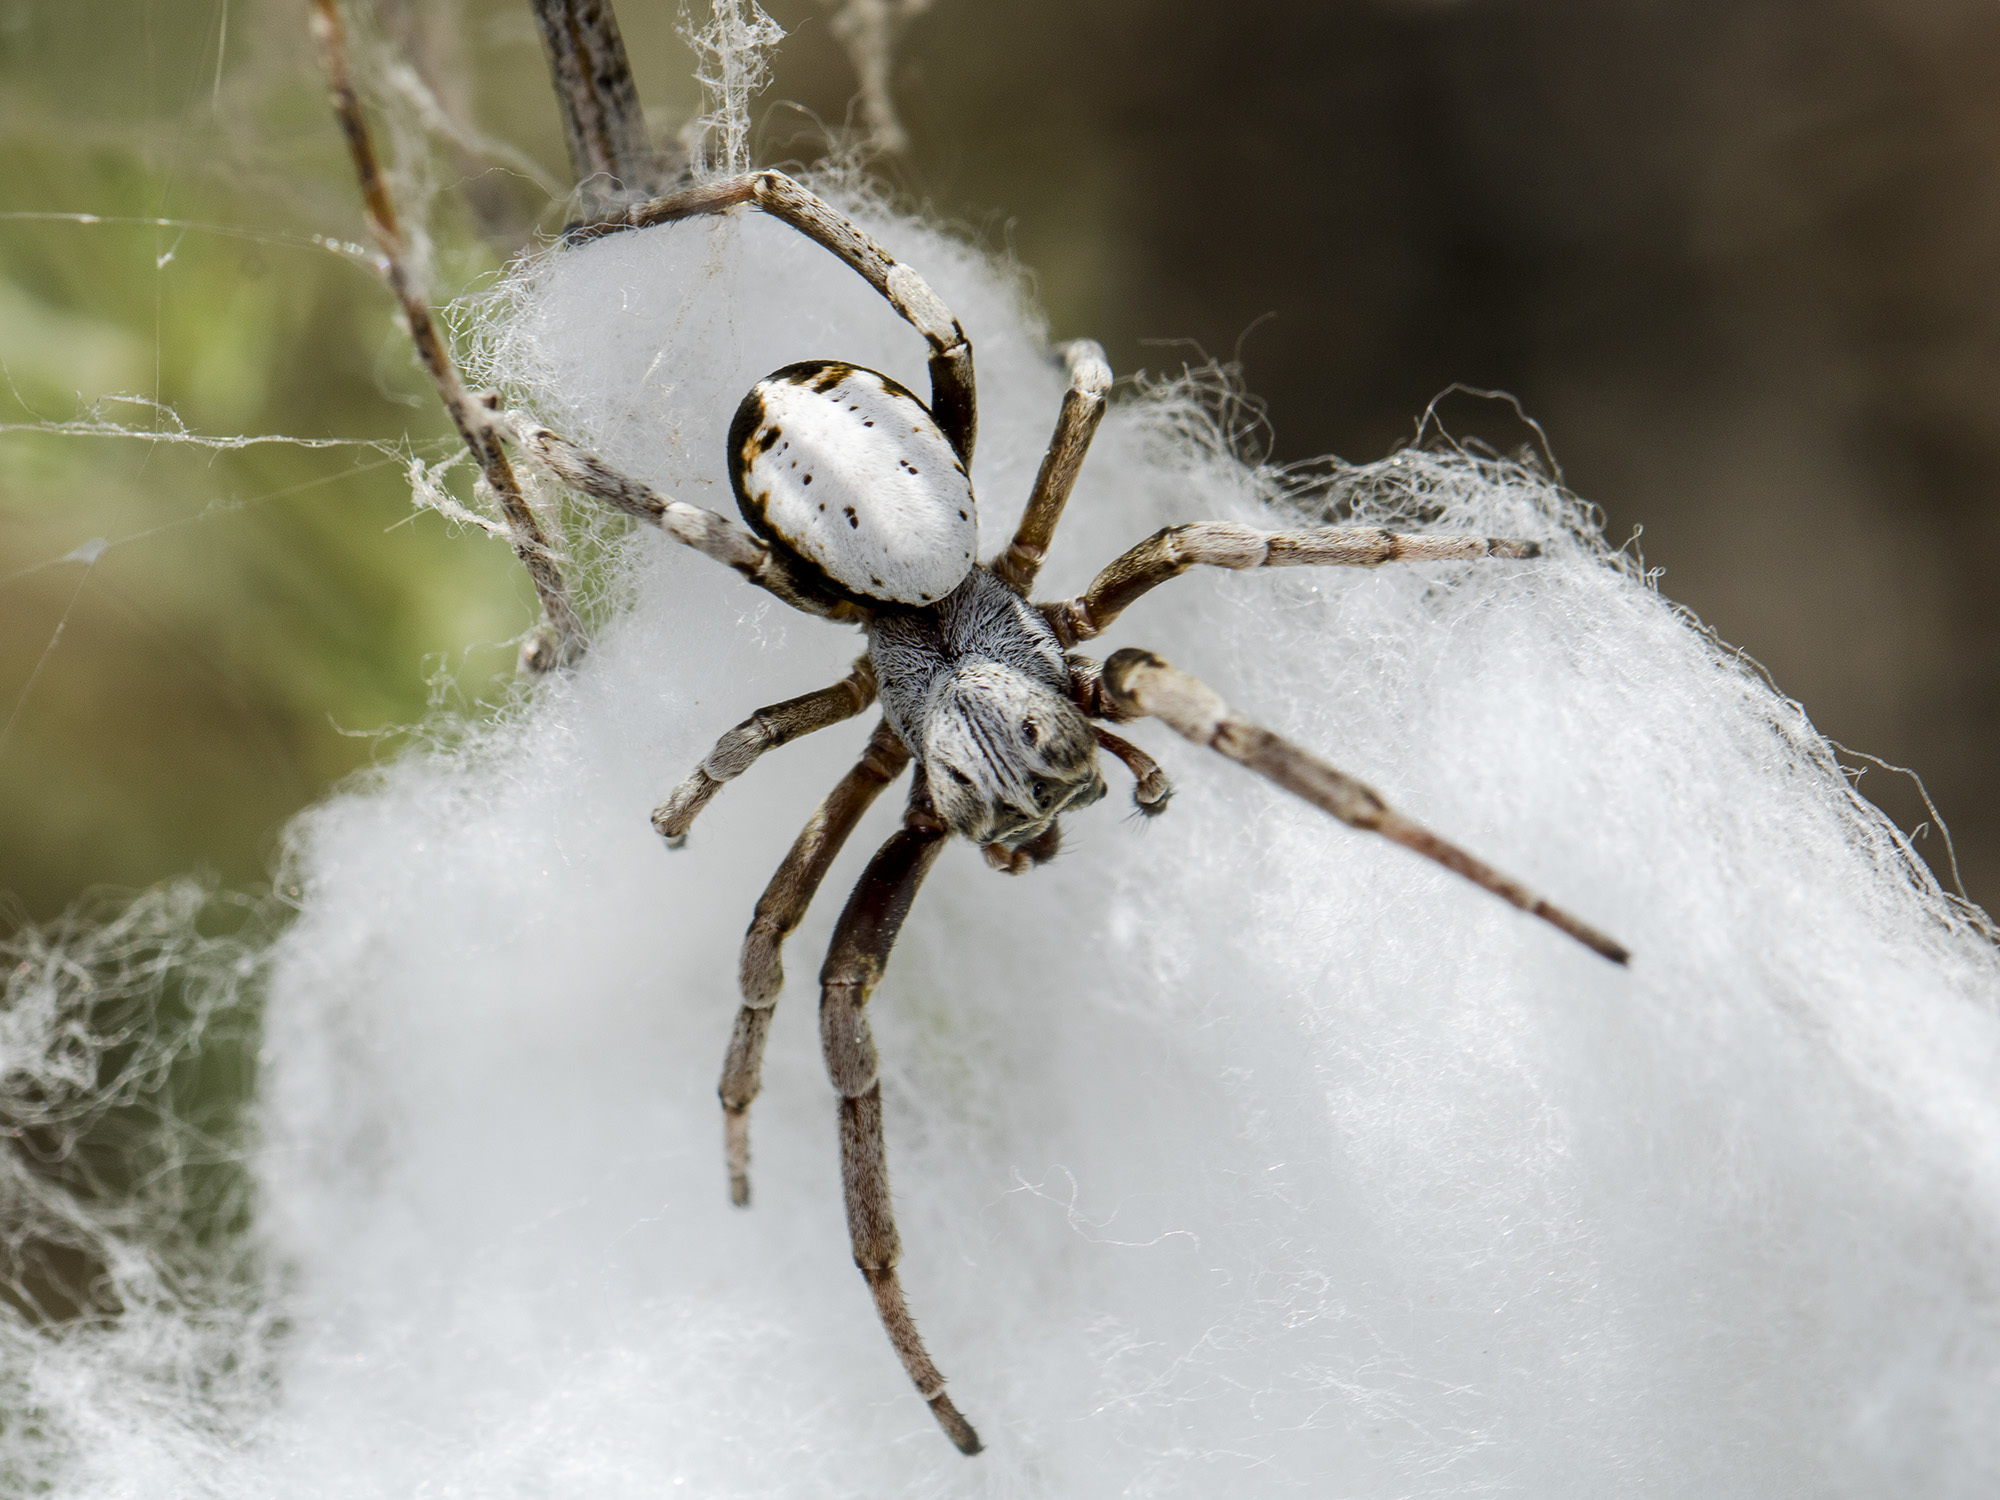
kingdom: Animalia
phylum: Arthropoda
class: Arachnida
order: Araneae
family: Eresidae
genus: Stegodyphus
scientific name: Stegodyphus lineatus
